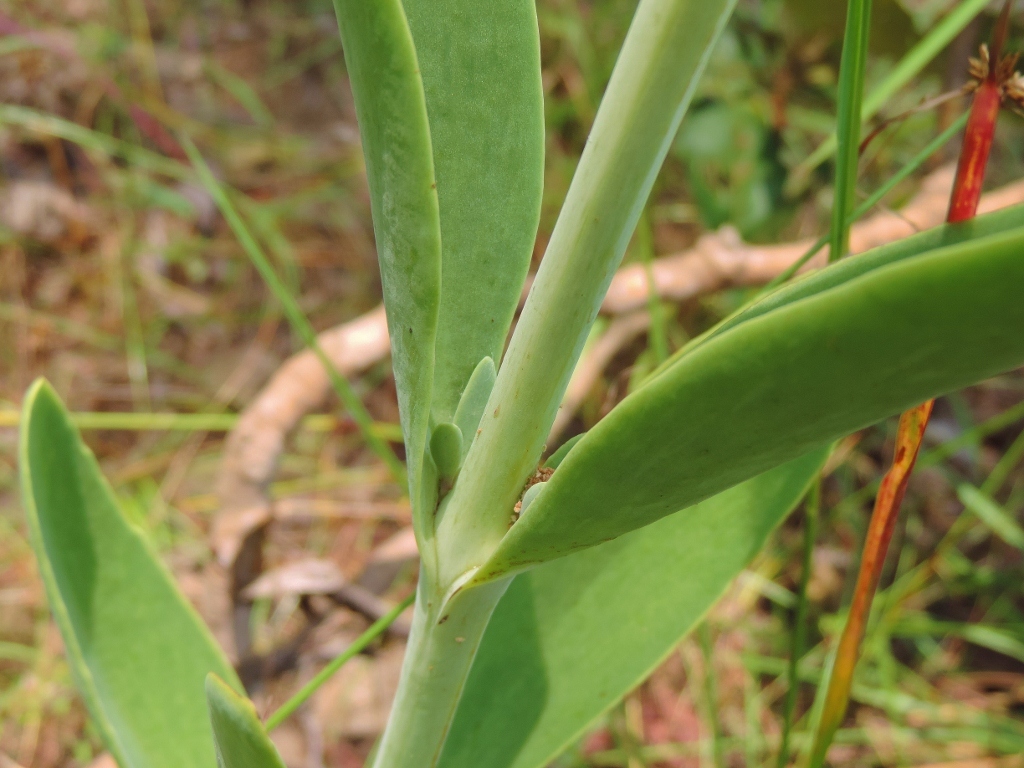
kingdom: Plantae
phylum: Tracheophyta
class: Magnoliopsida
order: Saxifragales
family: Crassulaceae
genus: Kalanchoe
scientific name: Kalanchoe brachyloba
